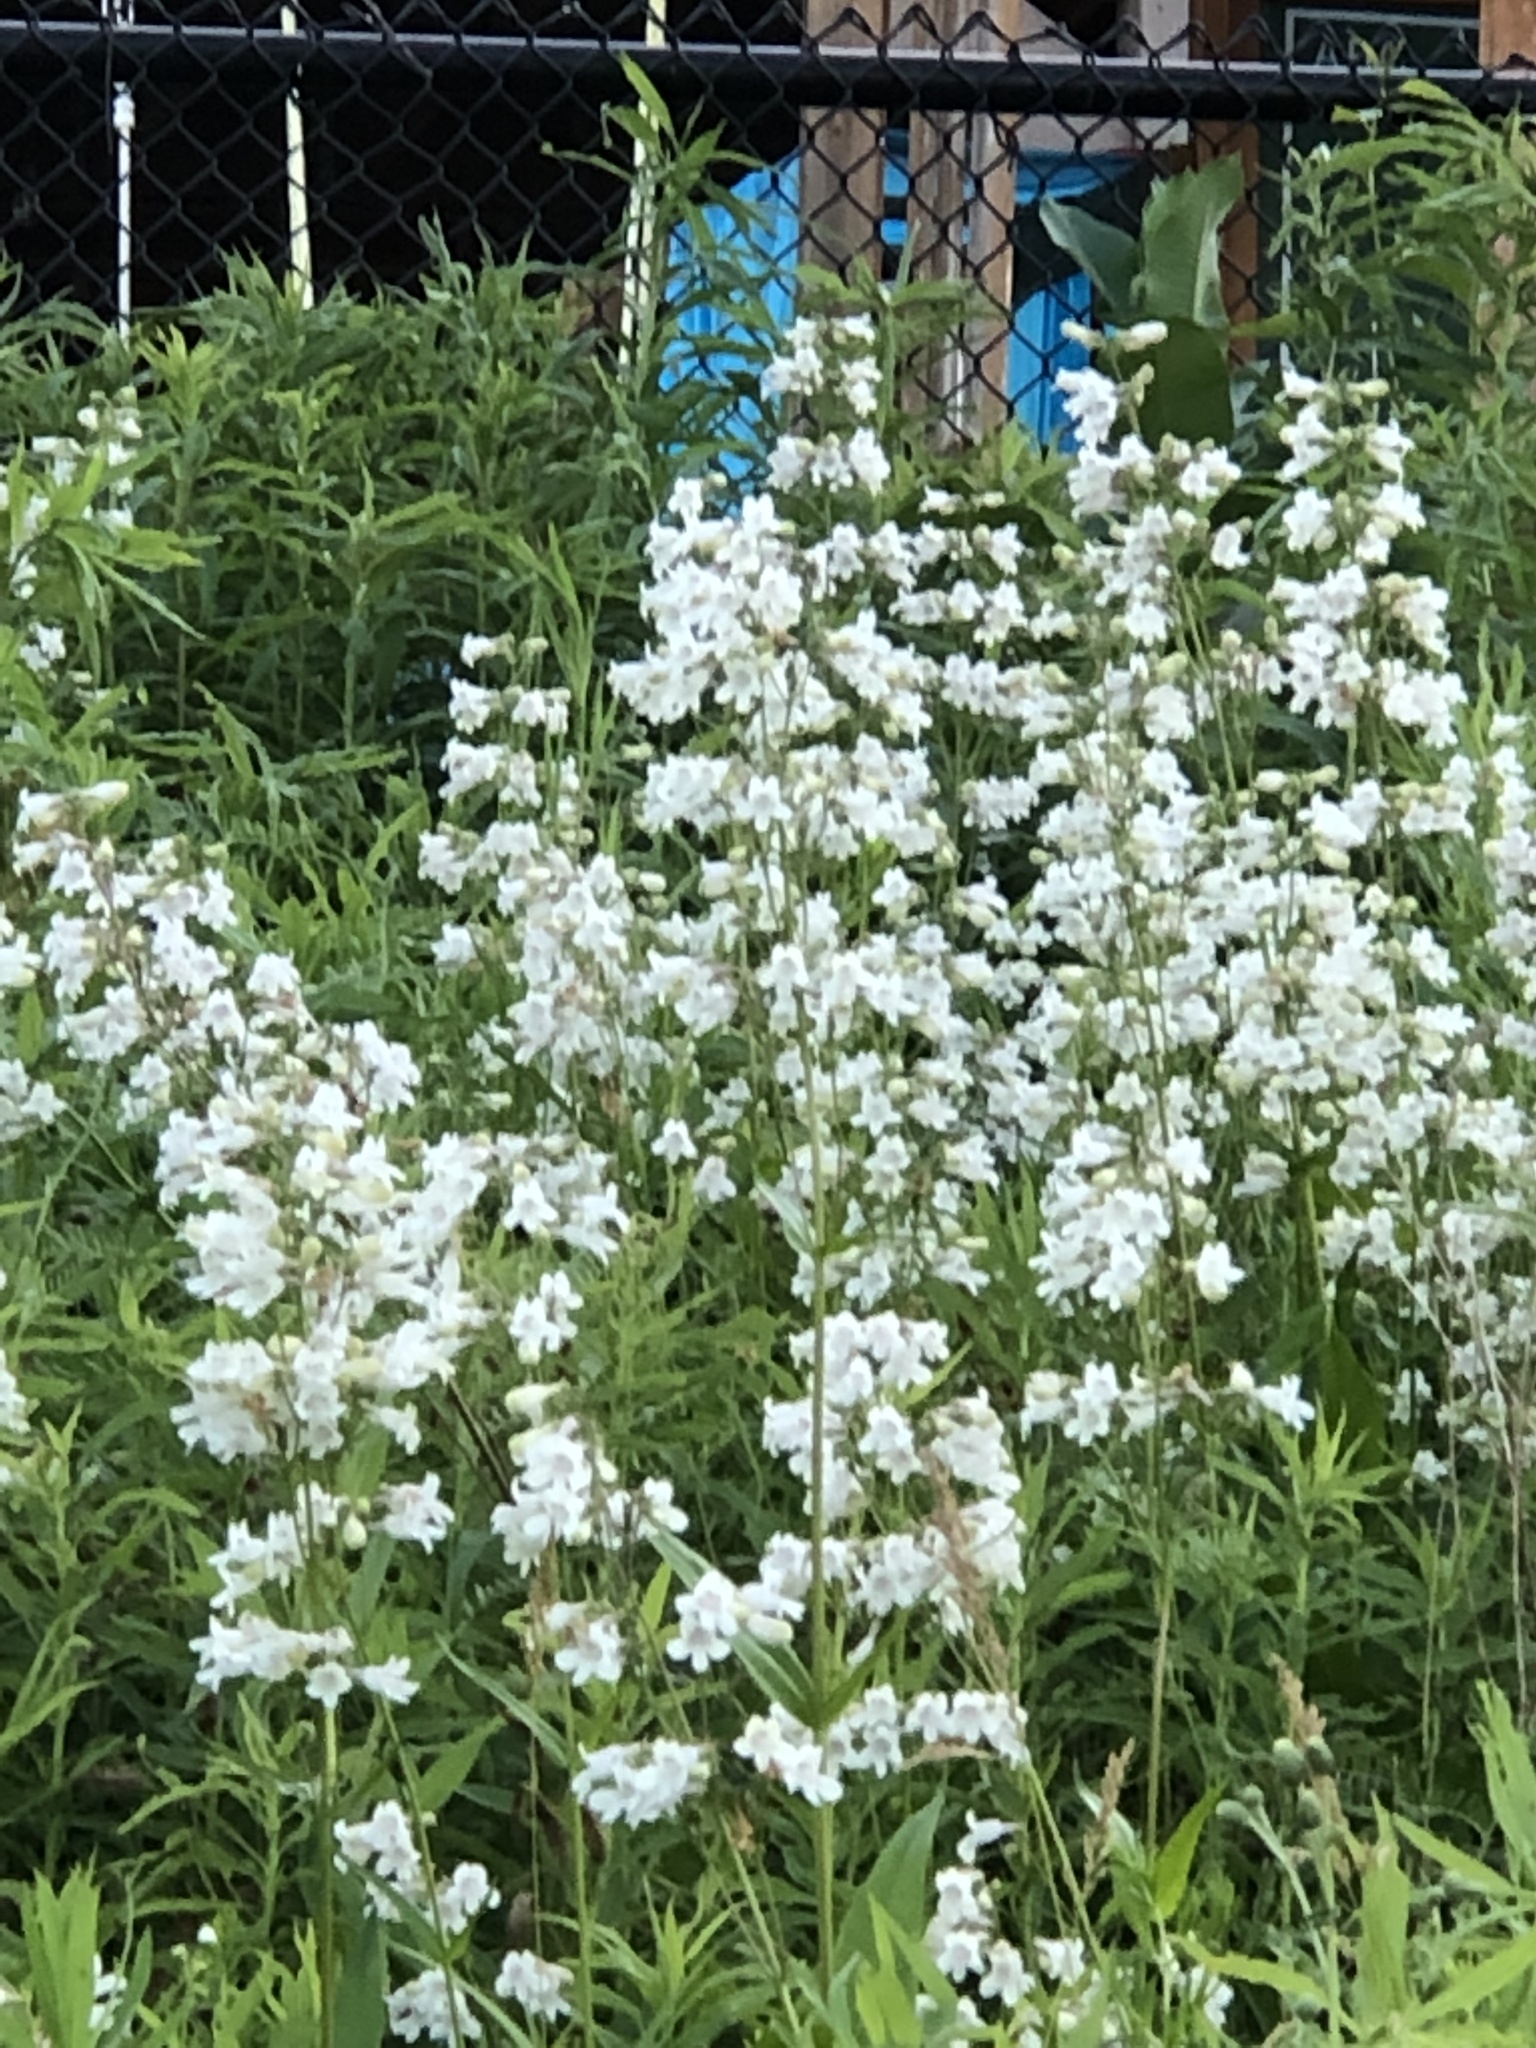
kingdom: Plantae
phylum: Tracheophyta
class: Magnoliopsida
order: Lamiales
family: Plantaginaceae
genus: Penstemon
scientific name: Penstemon digitalis
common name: Foxglove beardtongue
